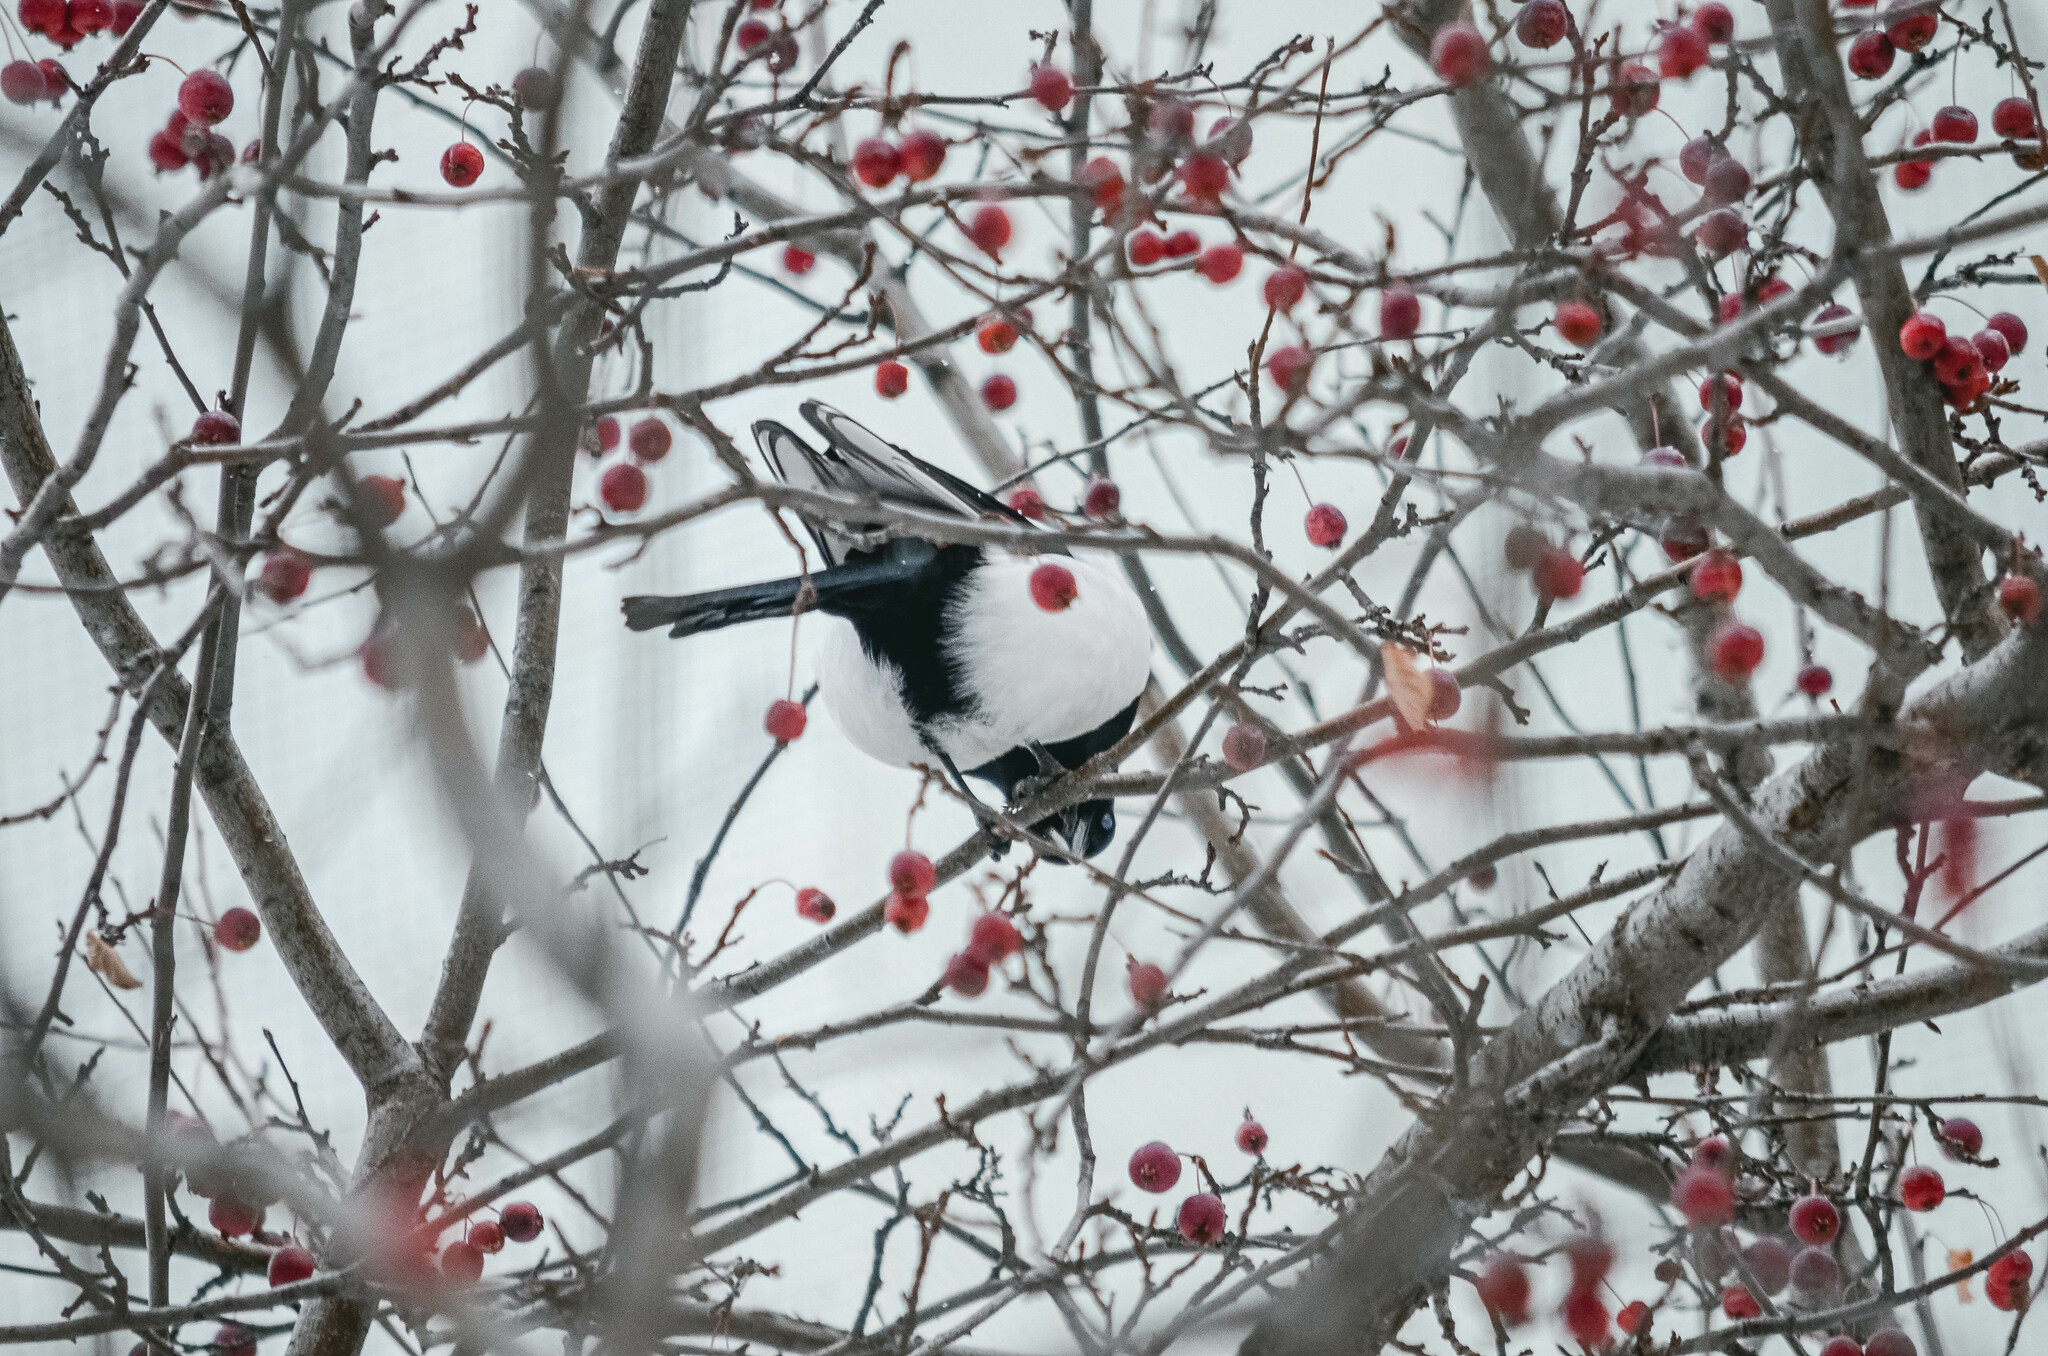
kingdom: Animalia
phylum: Chordata
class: Aves
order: Passeriformes
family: Corvidae
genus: Pica
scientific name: Pica pica
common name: Eurasian magpie
